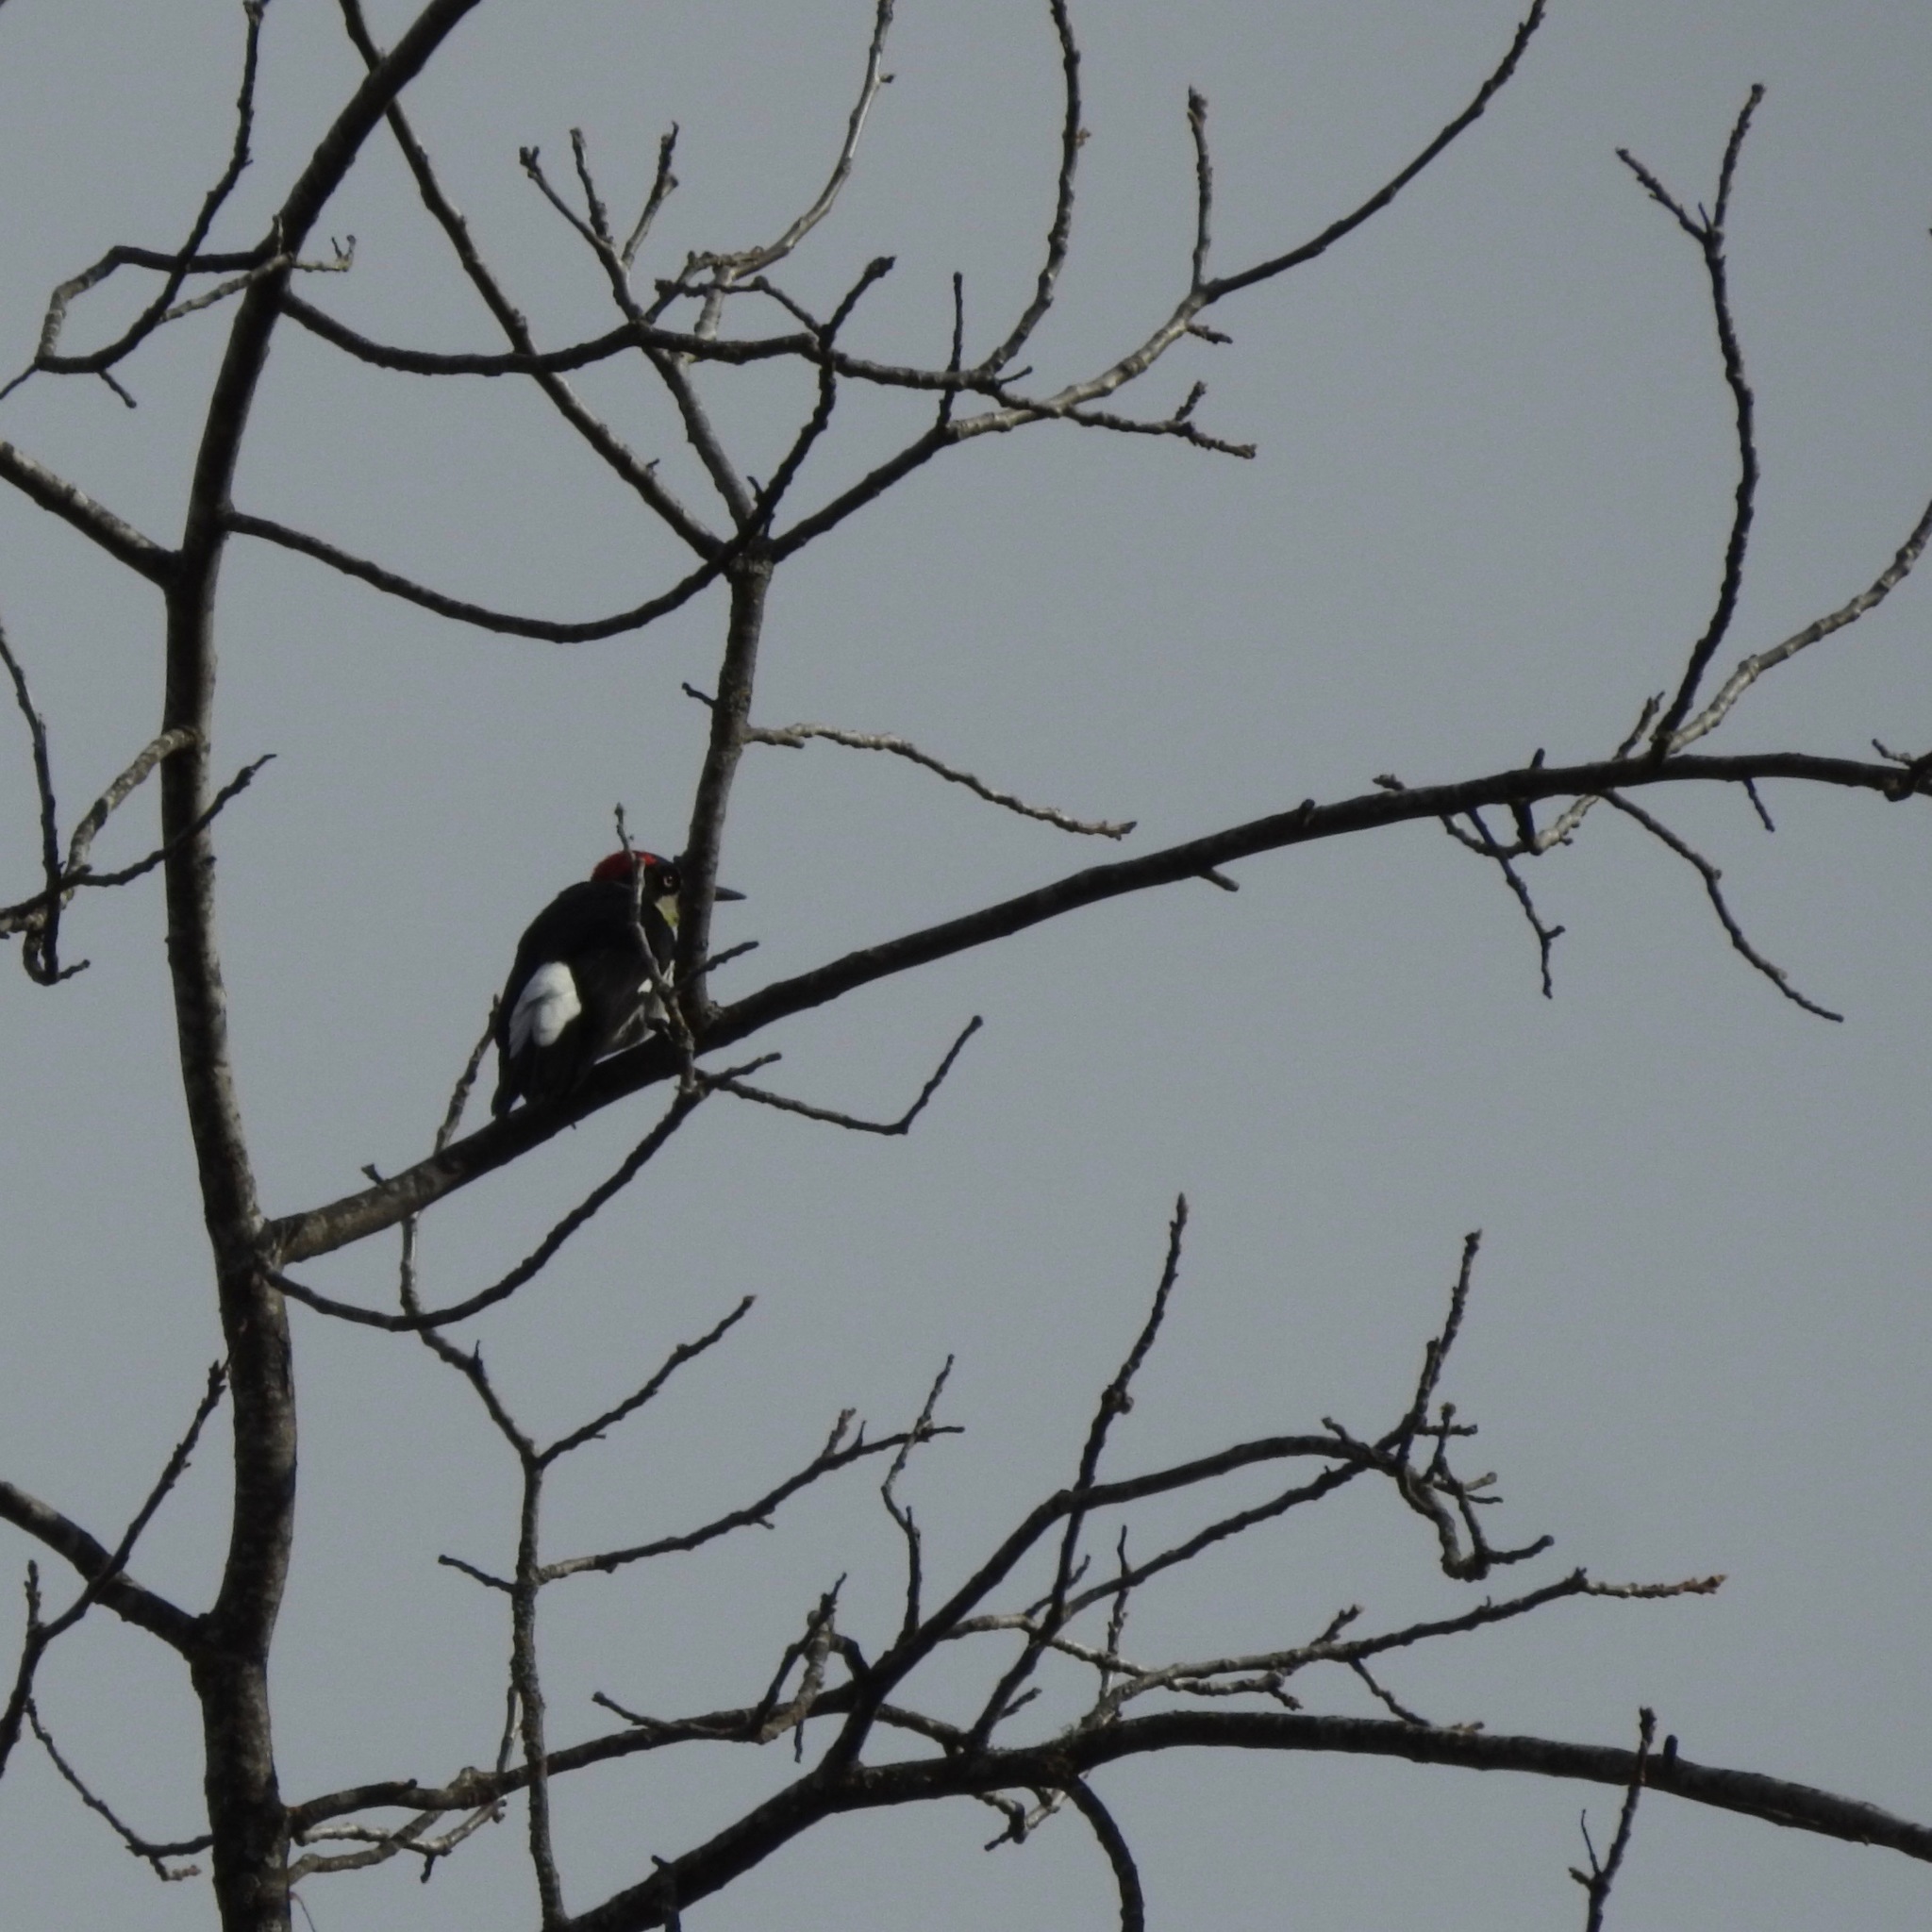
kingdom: Animalia
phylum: Chordata
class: Aves
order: Piciformes
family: Picidae
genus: Melanerpes
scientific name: Melanerpes formicivorus
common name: Acorn woodpecker
